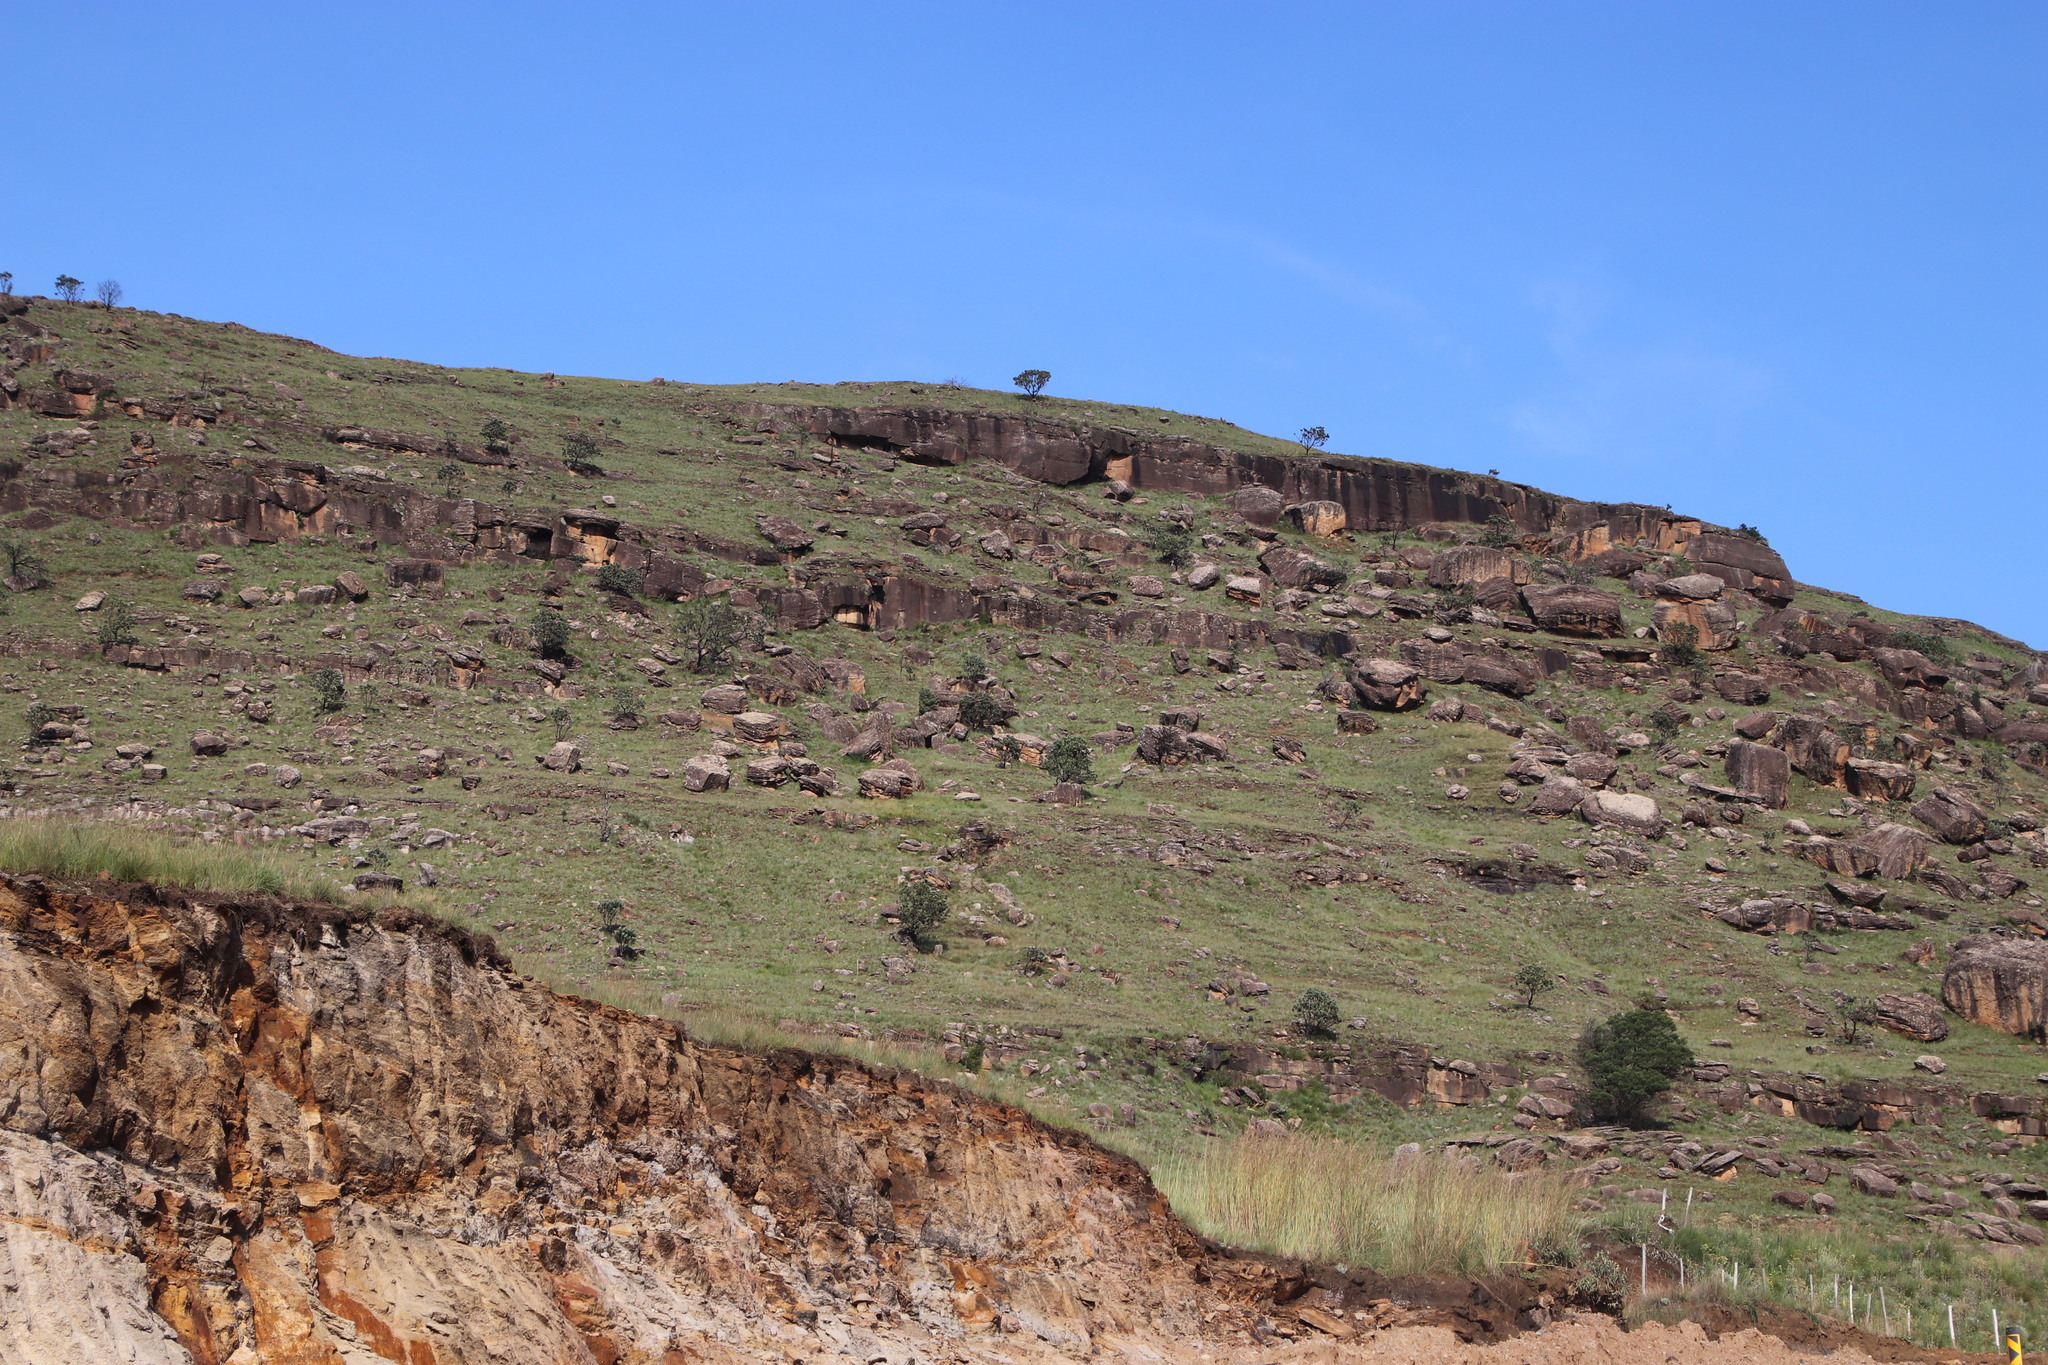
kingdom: Plantae
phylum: Tracheophyta
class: Magnoliopsida
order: Proteales
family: Proteaceae
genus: Protea
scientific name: Protea roupelliae
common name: Silver sugarbush
